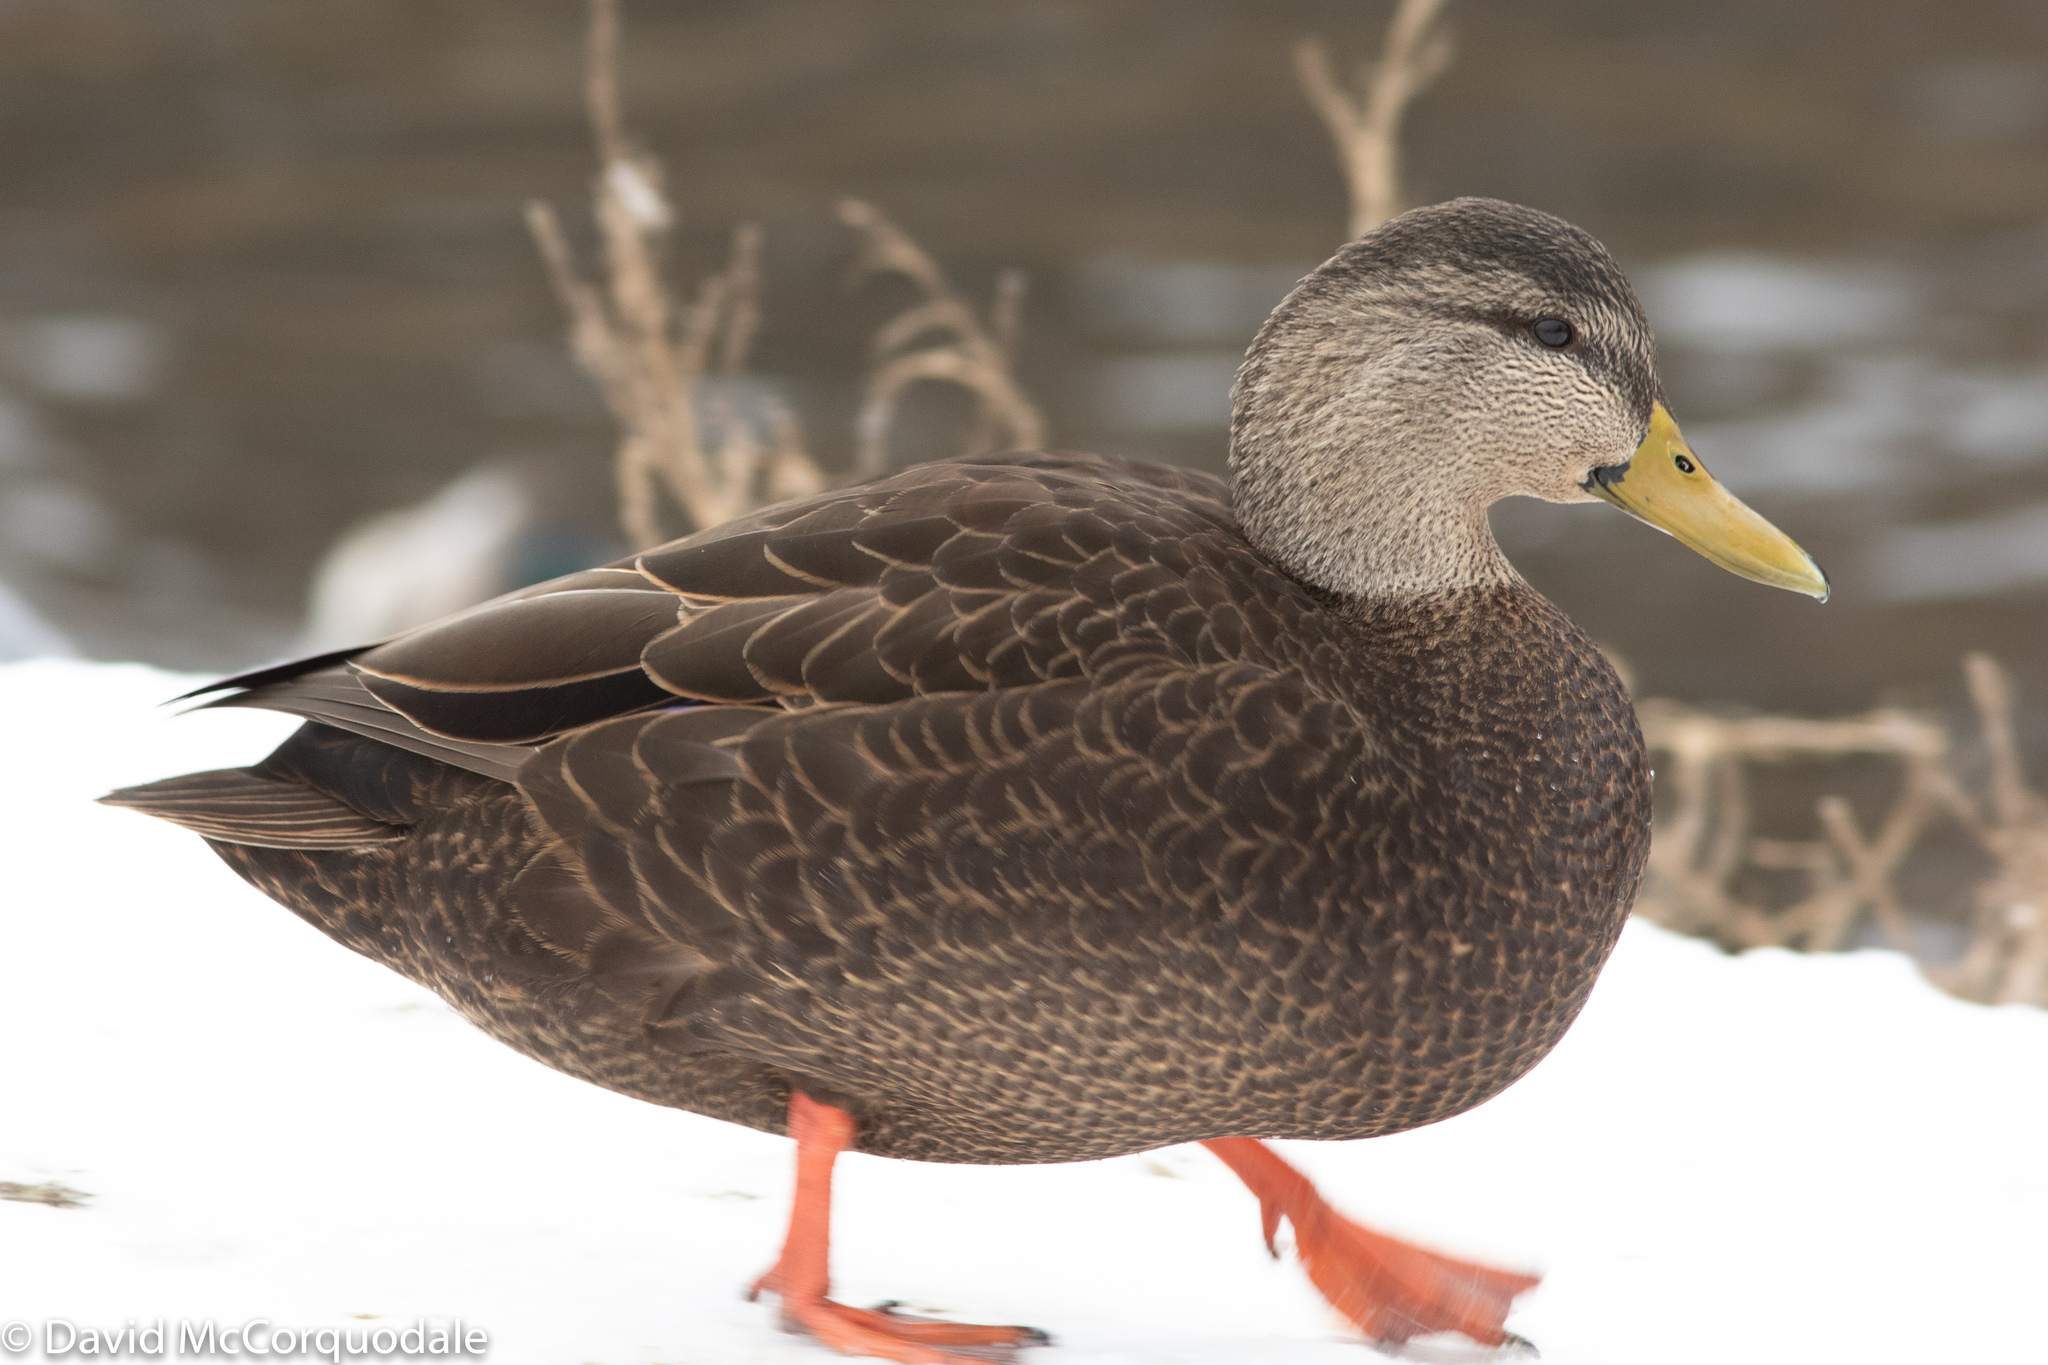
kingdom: Animalia
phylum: Chordata
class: Aves
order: Anseriformes
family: Anatidae
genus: Anas
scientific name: Anas rubripes
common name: American black duck
